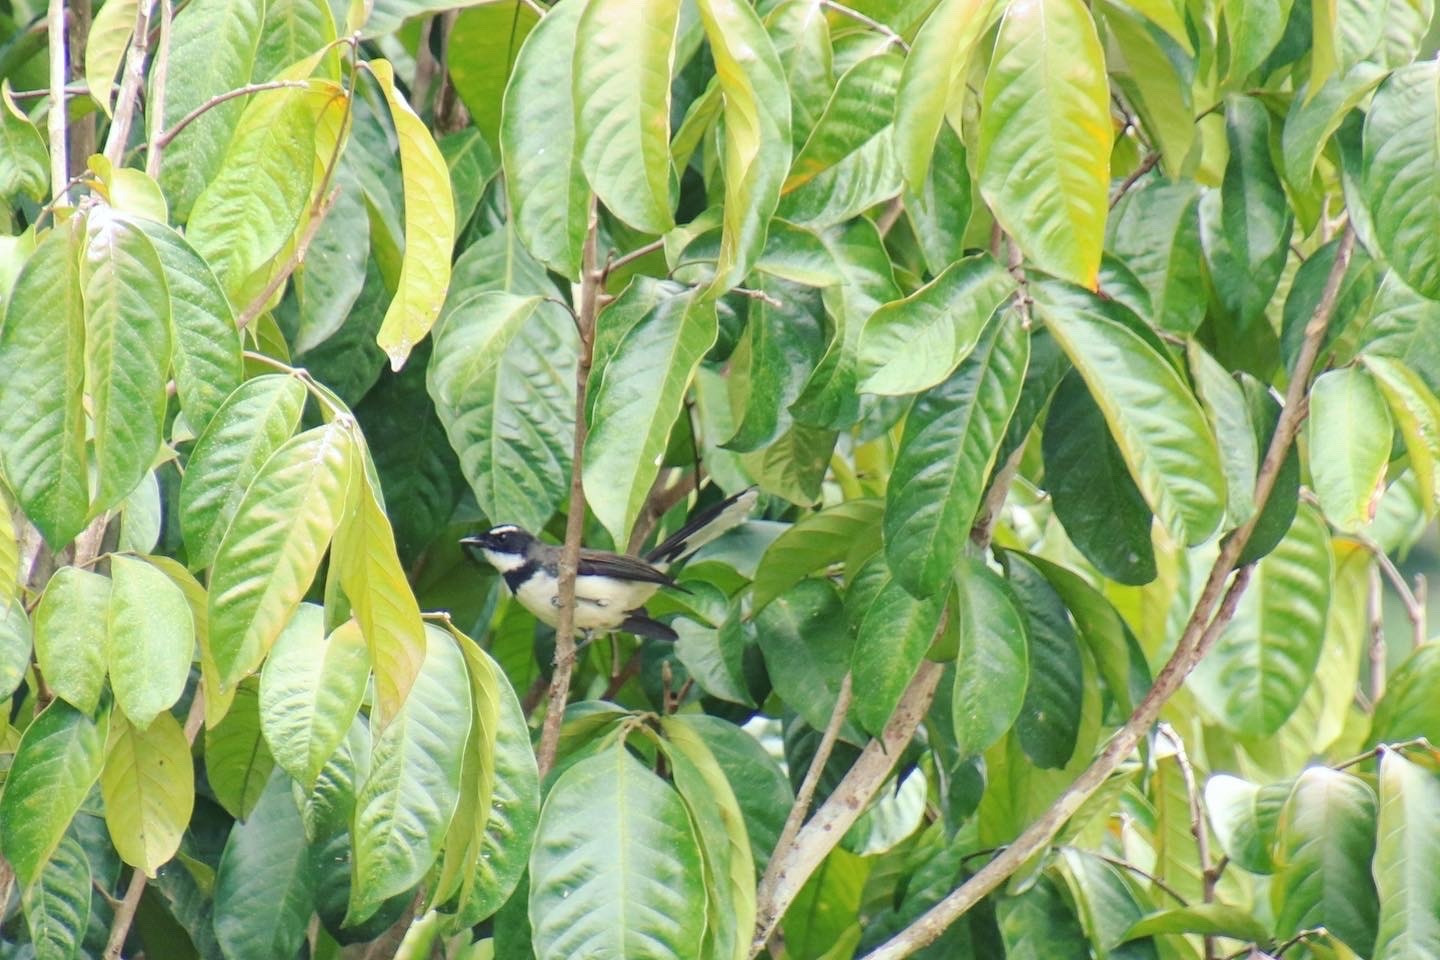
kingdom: Animalia
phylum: Chordata
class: Aves
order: Passeriformes
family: Rhipiduridae
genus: Rhipidura
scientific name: Rhipidura nigritorquis
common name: Philippine pied fantail
